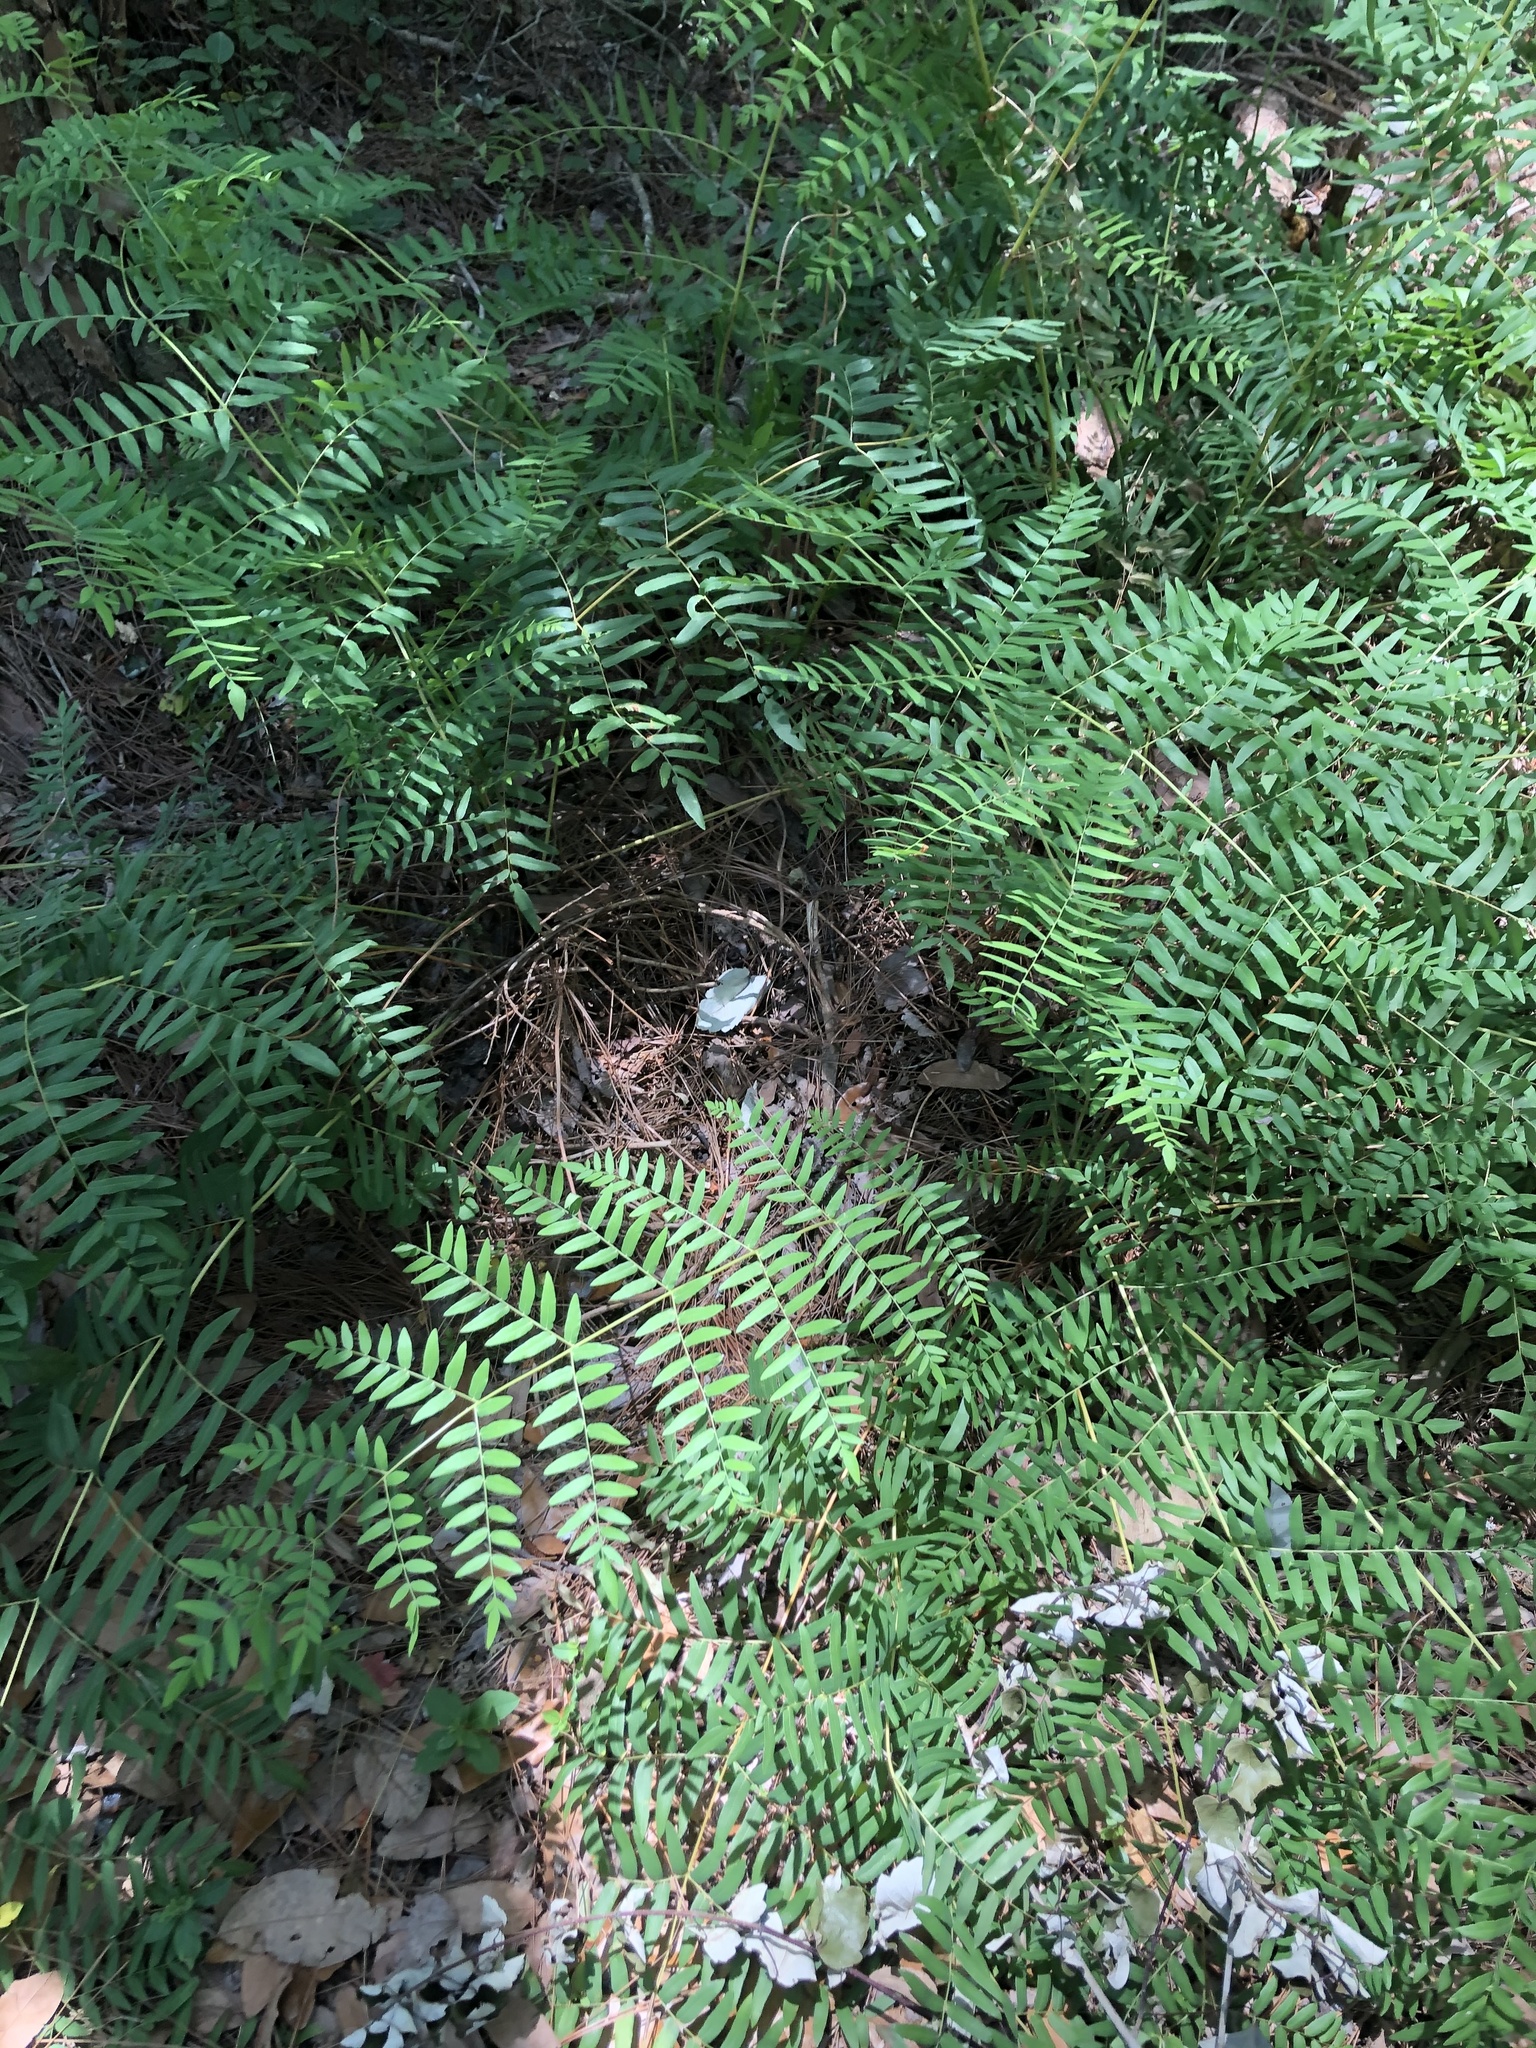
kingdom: Plantae
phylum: Tracheophyta
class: Polypodiopsida
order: Osmundales
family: Osmundaceae
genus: Osmunda
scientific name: Osmunda spectabilis
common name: American royal fern
